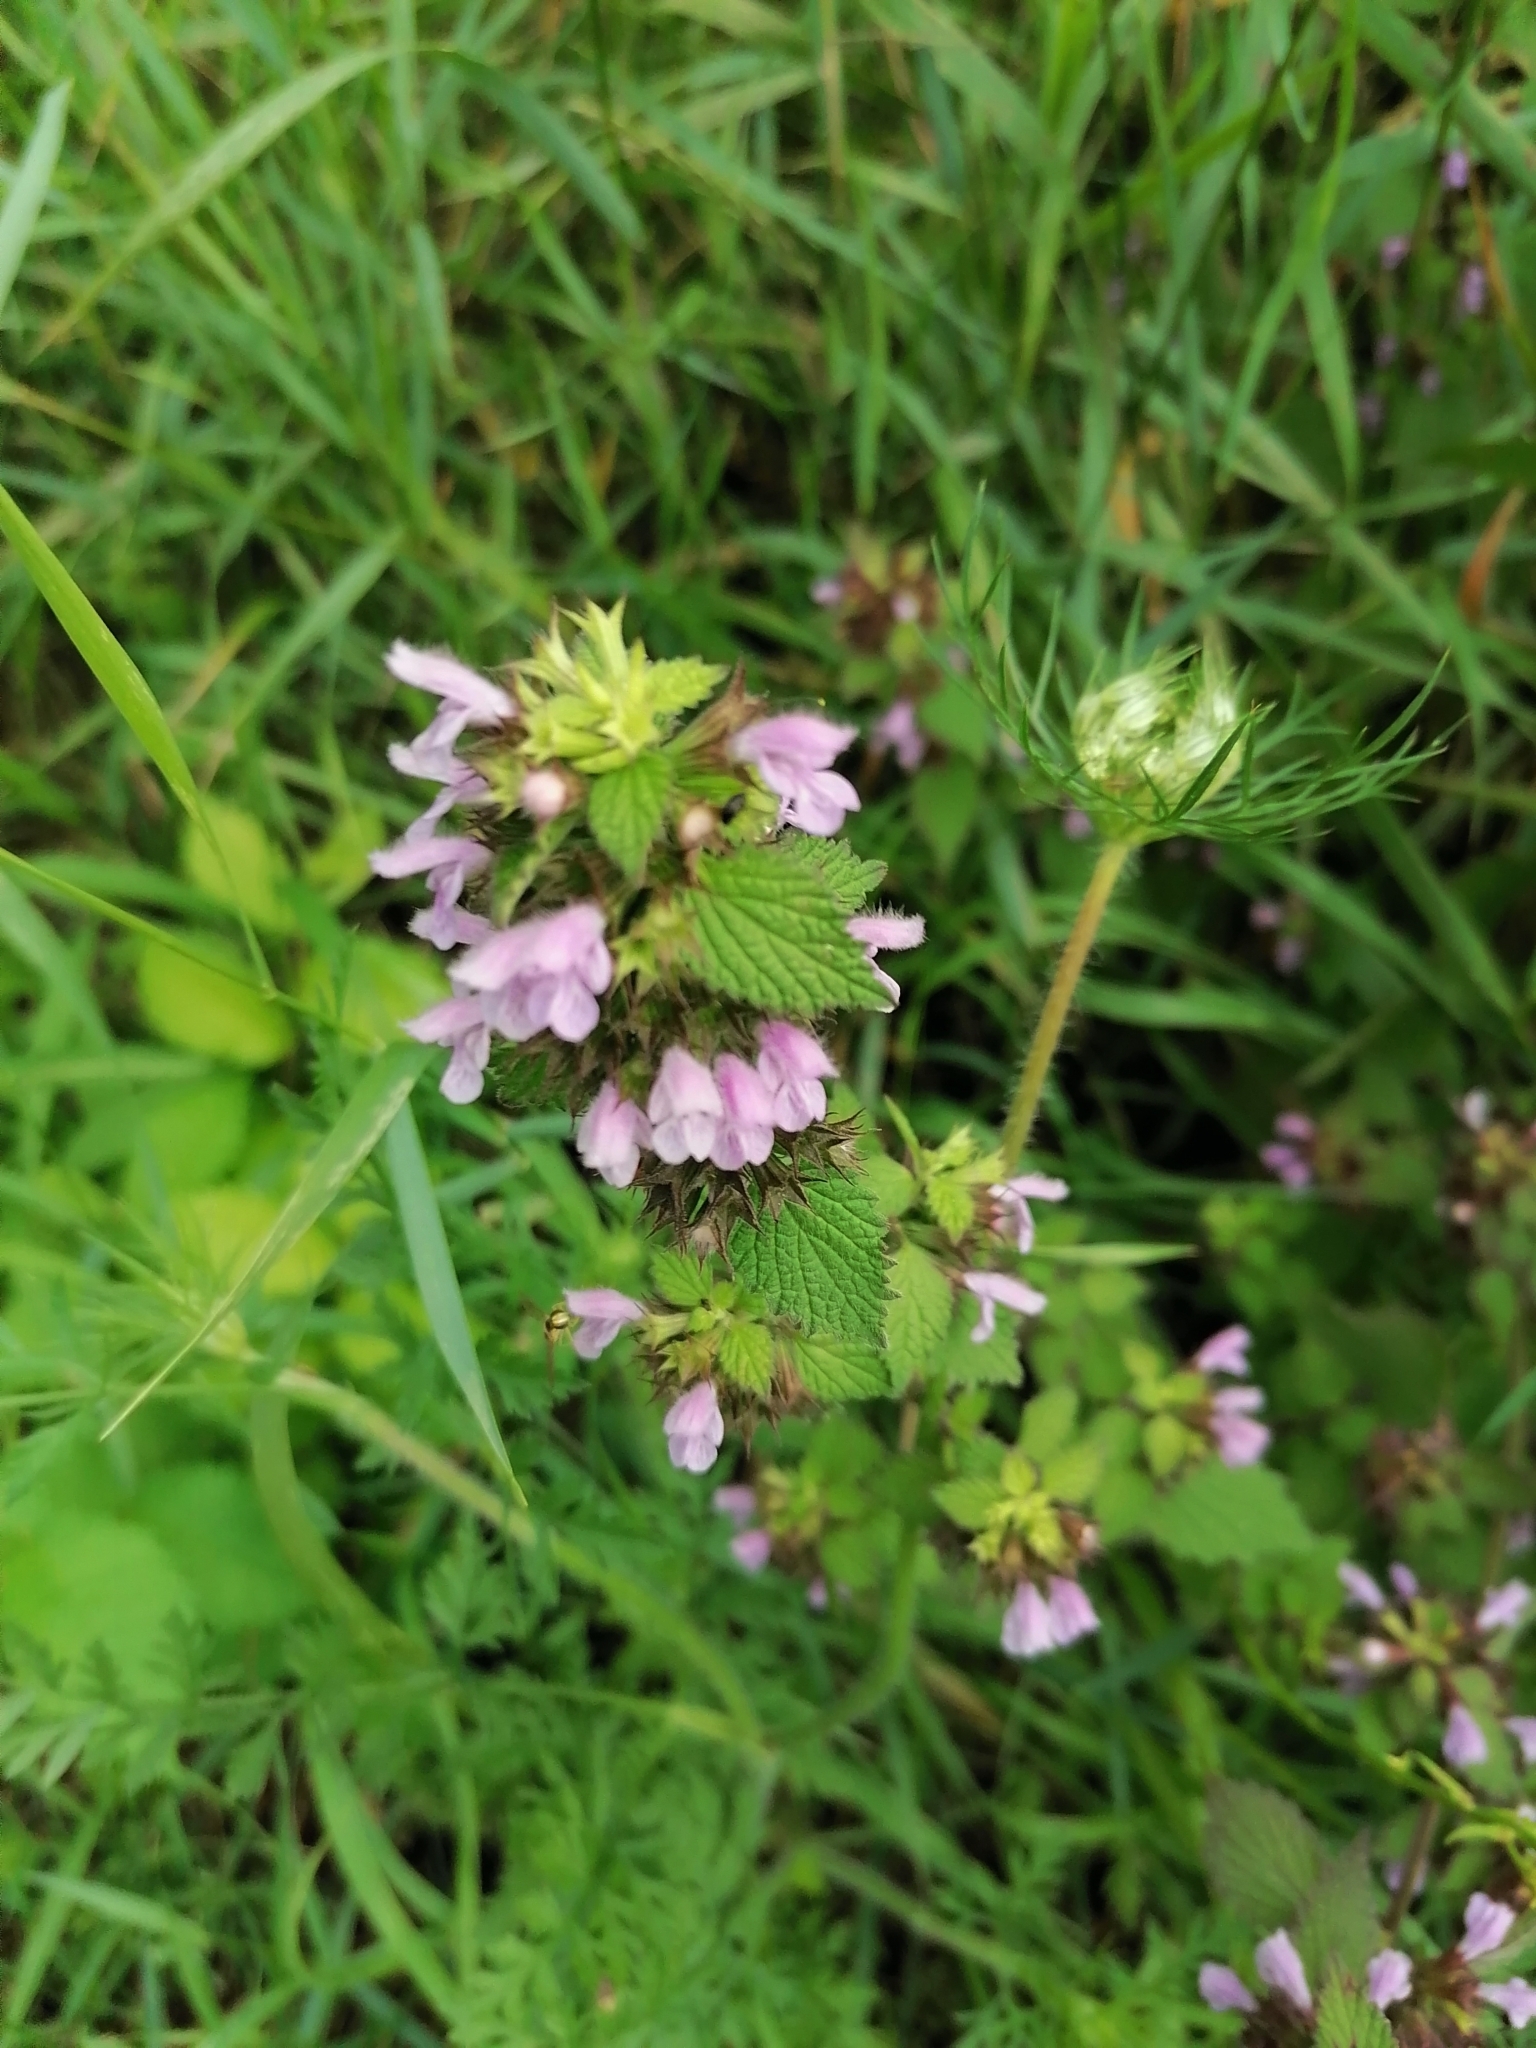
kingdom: Plantae
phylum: Tracheophyta
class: Magnoliopsida
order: Lamiales
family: Lamiaceae
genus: Ballota
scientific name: Ballota nigra
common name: Black horehound
